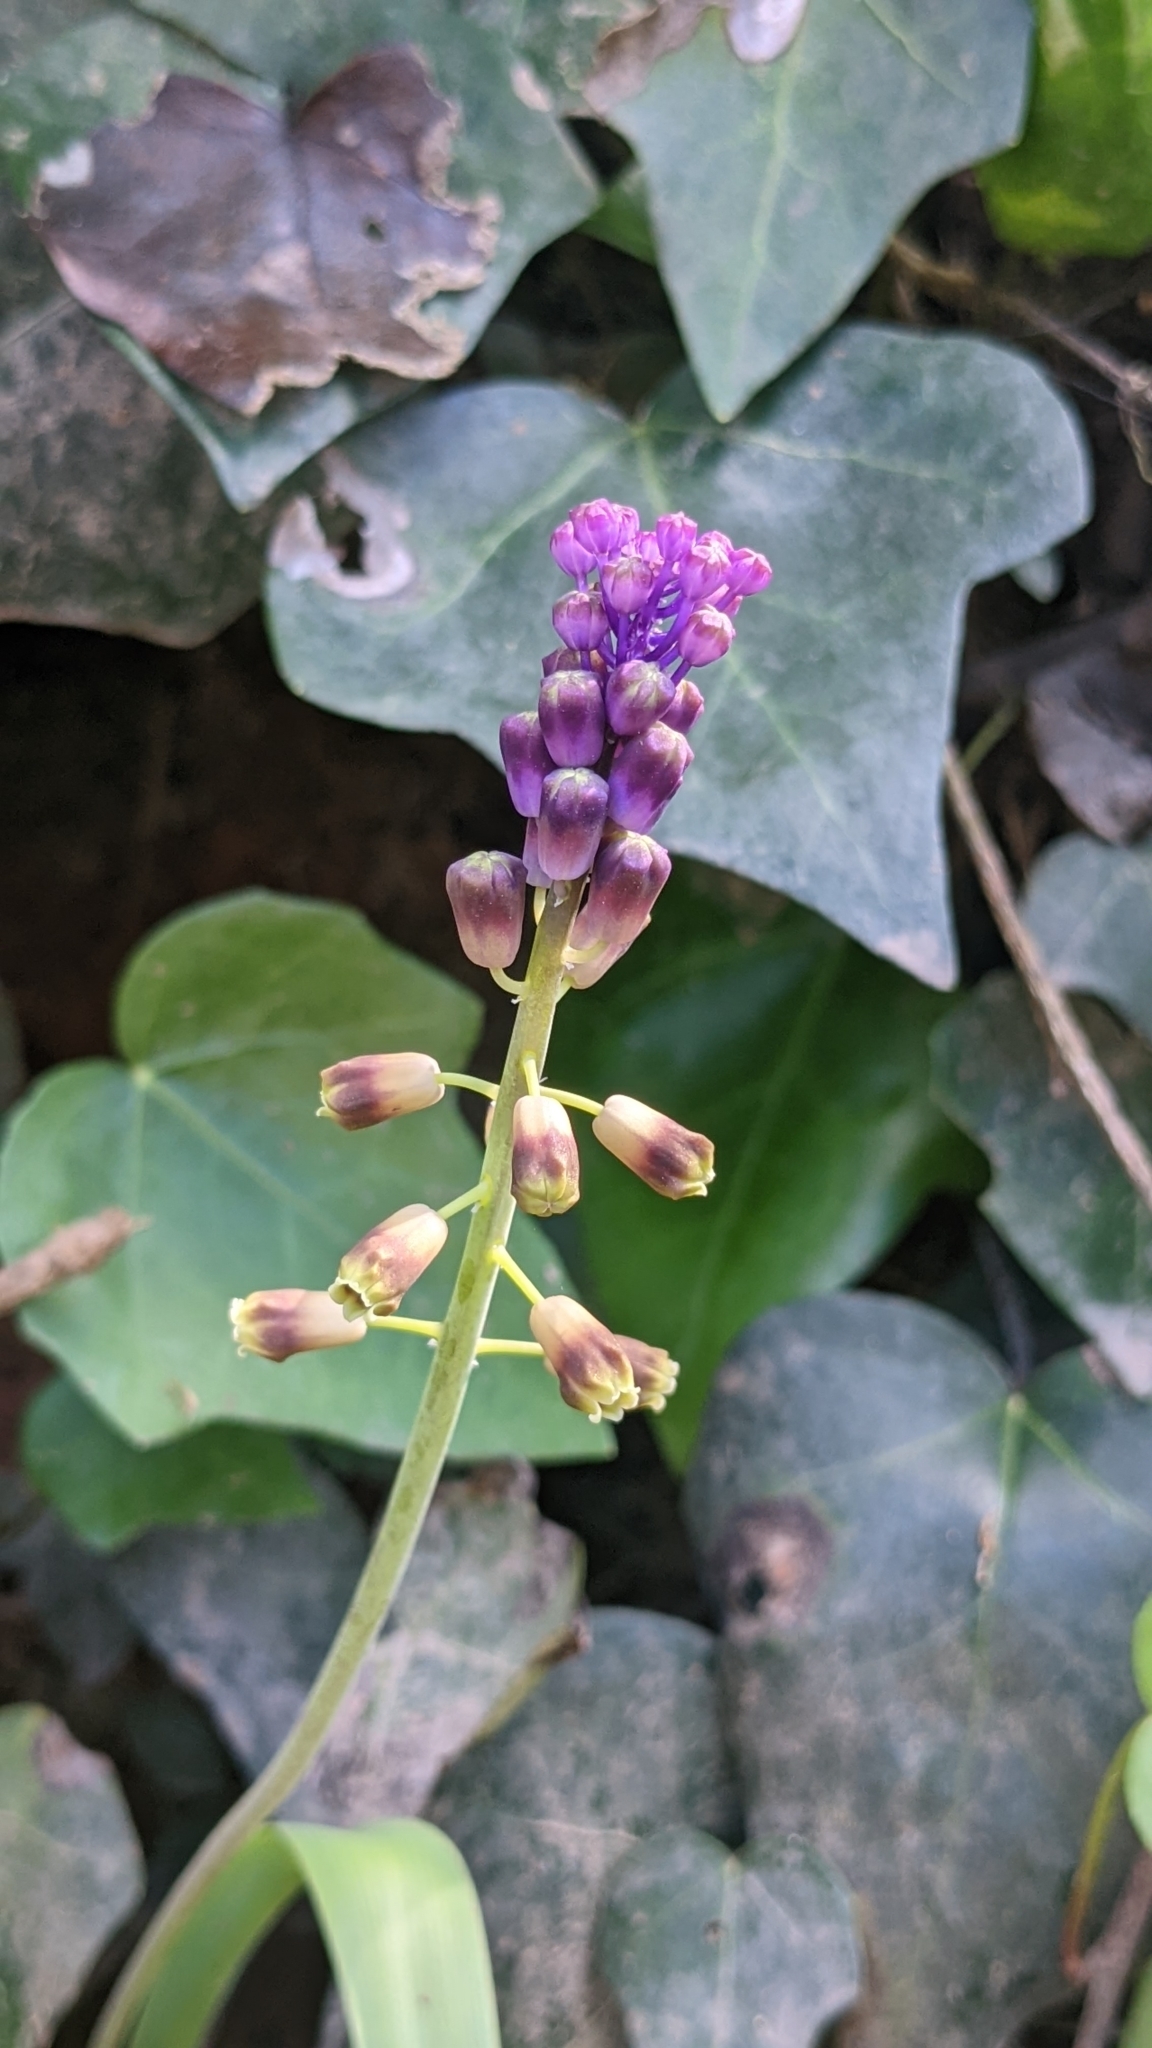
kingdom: Plantae
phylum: Tracheophyta
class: Liliopsida
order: Asparagales
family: Asparagaceae
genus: Muscari
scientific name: Muscari comosum
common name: Tassel hyacinth
